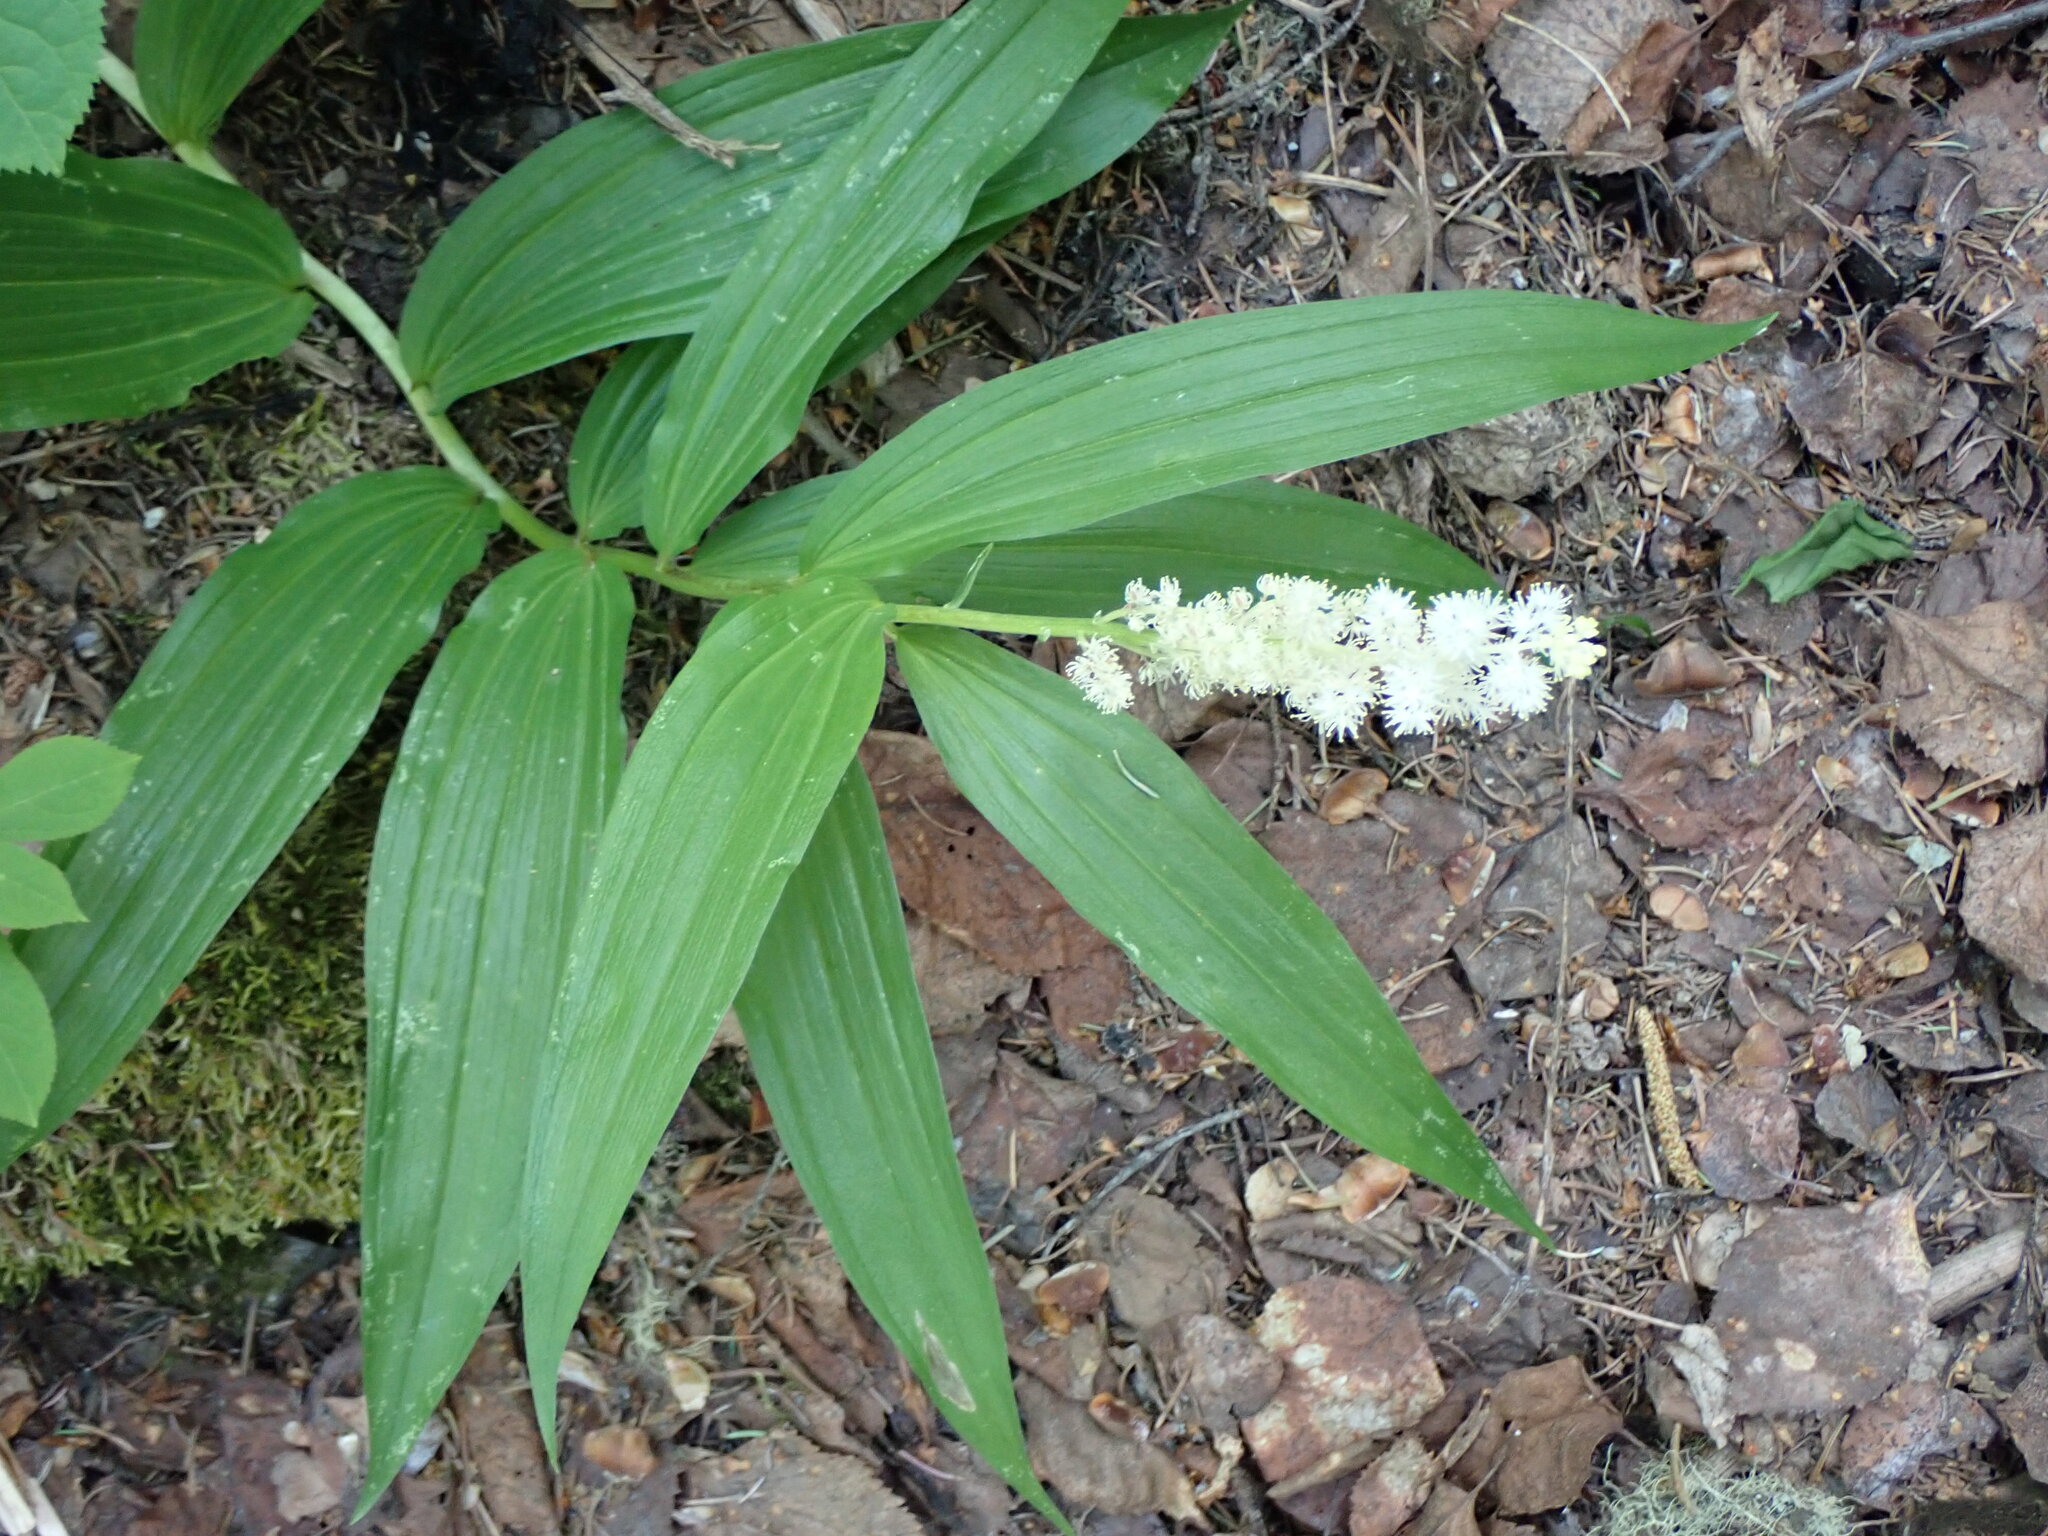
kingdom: Plantae
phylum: Tracheophyta
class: Liliopsida
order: Asparagales
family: Asparagaceae
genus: Maianthemum
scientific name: Maianthemum racemosum
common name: False spikenard
